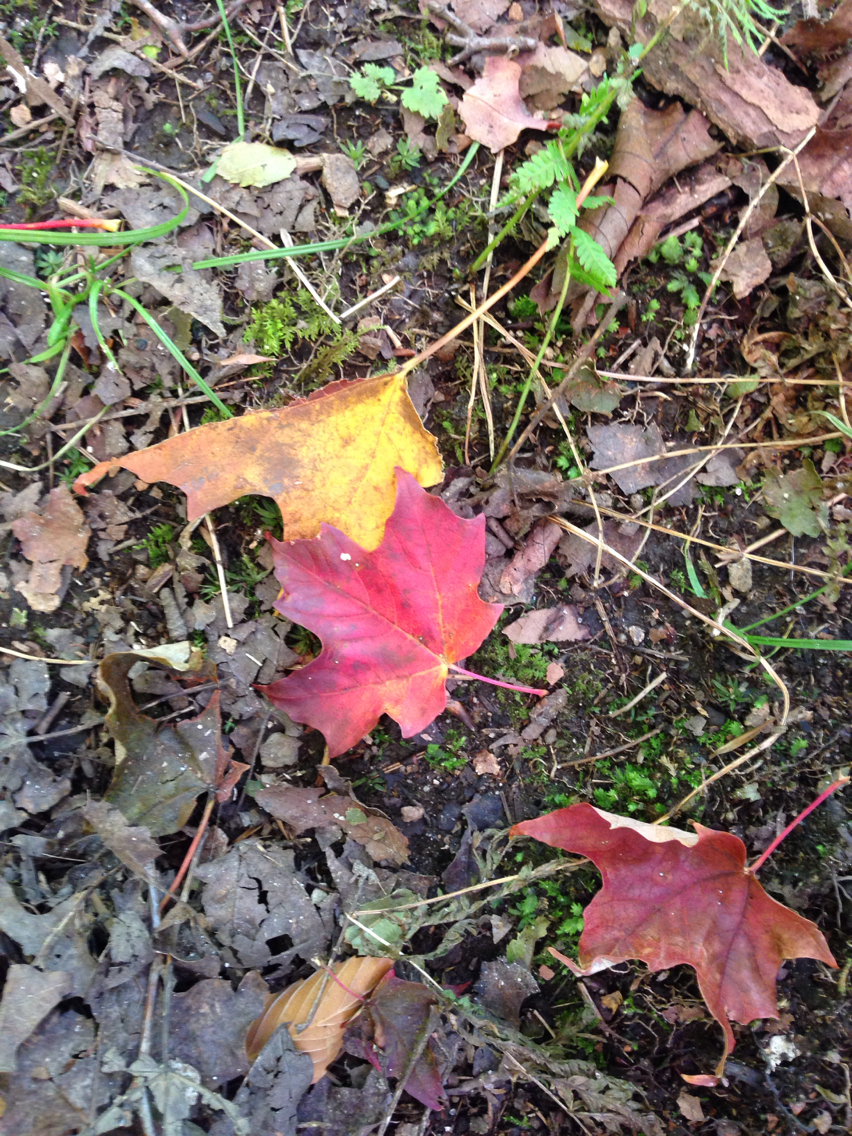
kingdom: Plantae
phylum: Tracheophyta
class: Magnoliopsida
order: Sapindales
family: Sapindaceae
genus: Acer
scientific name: Acer saccharum
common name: Sugar maple
